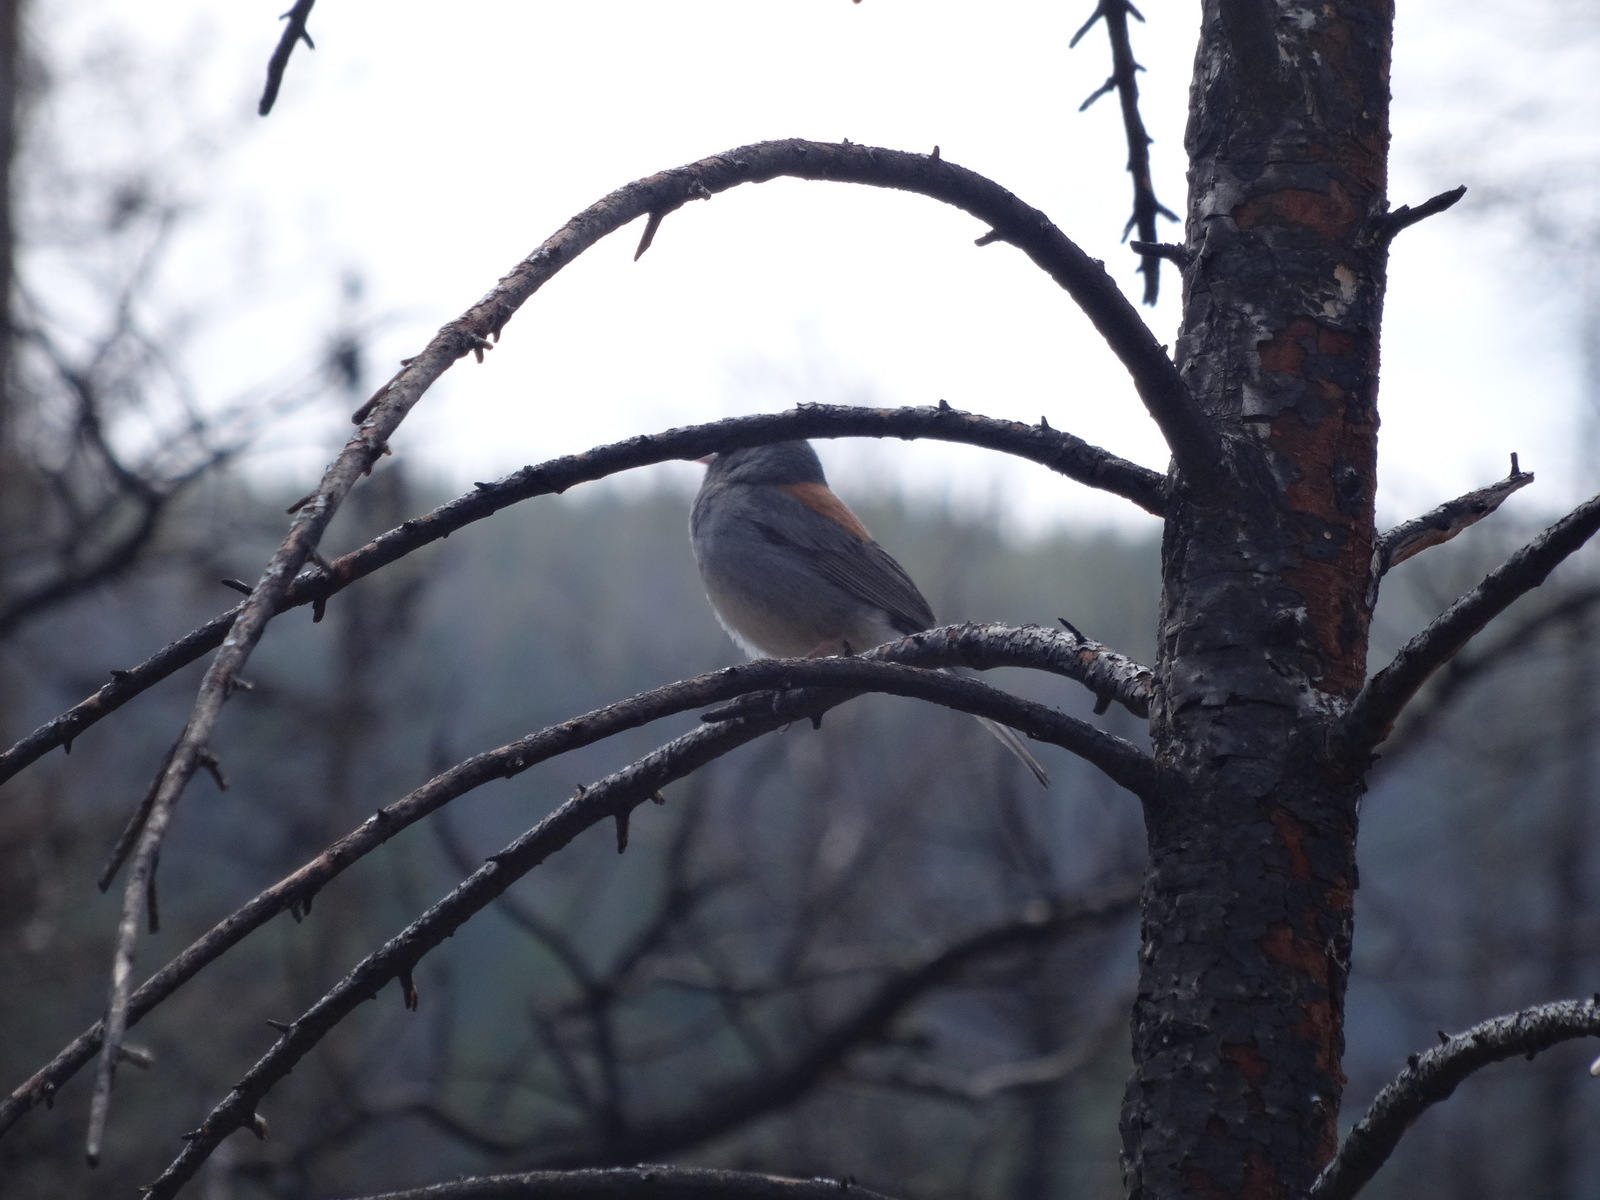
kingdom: Animalia
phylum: Chordata
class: Aves
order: Passeriformes
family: Passerellidae
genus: Junco
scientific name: Junco hyemalis
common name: Dark-eyed junco
